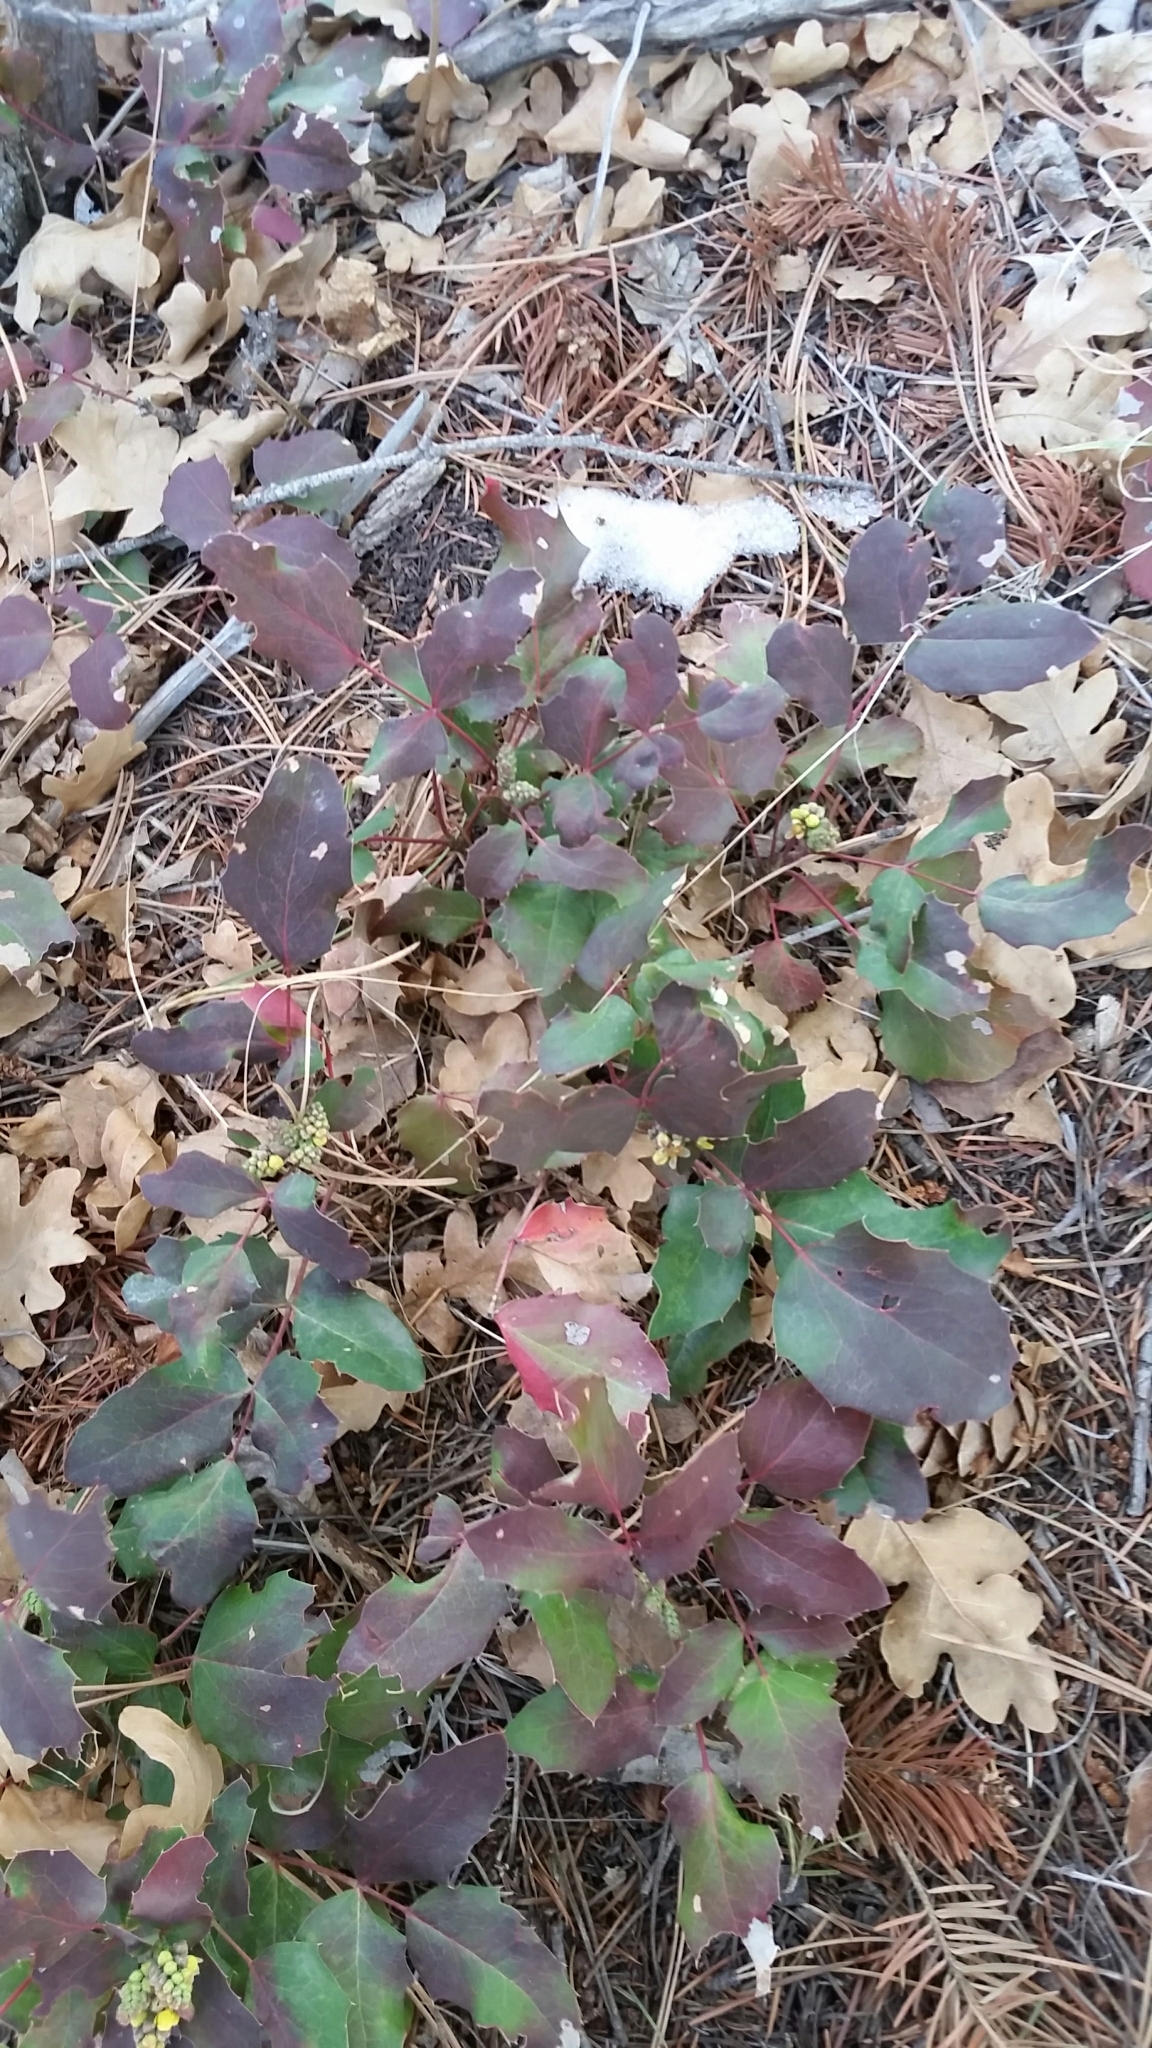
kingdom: Plantae
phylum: Tracheophyta
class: Magnoliopsida
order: Ranunculales
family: Berberidaceae
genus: Mahonia
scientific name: Mahonia repens
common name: Creeping oregon-grape
